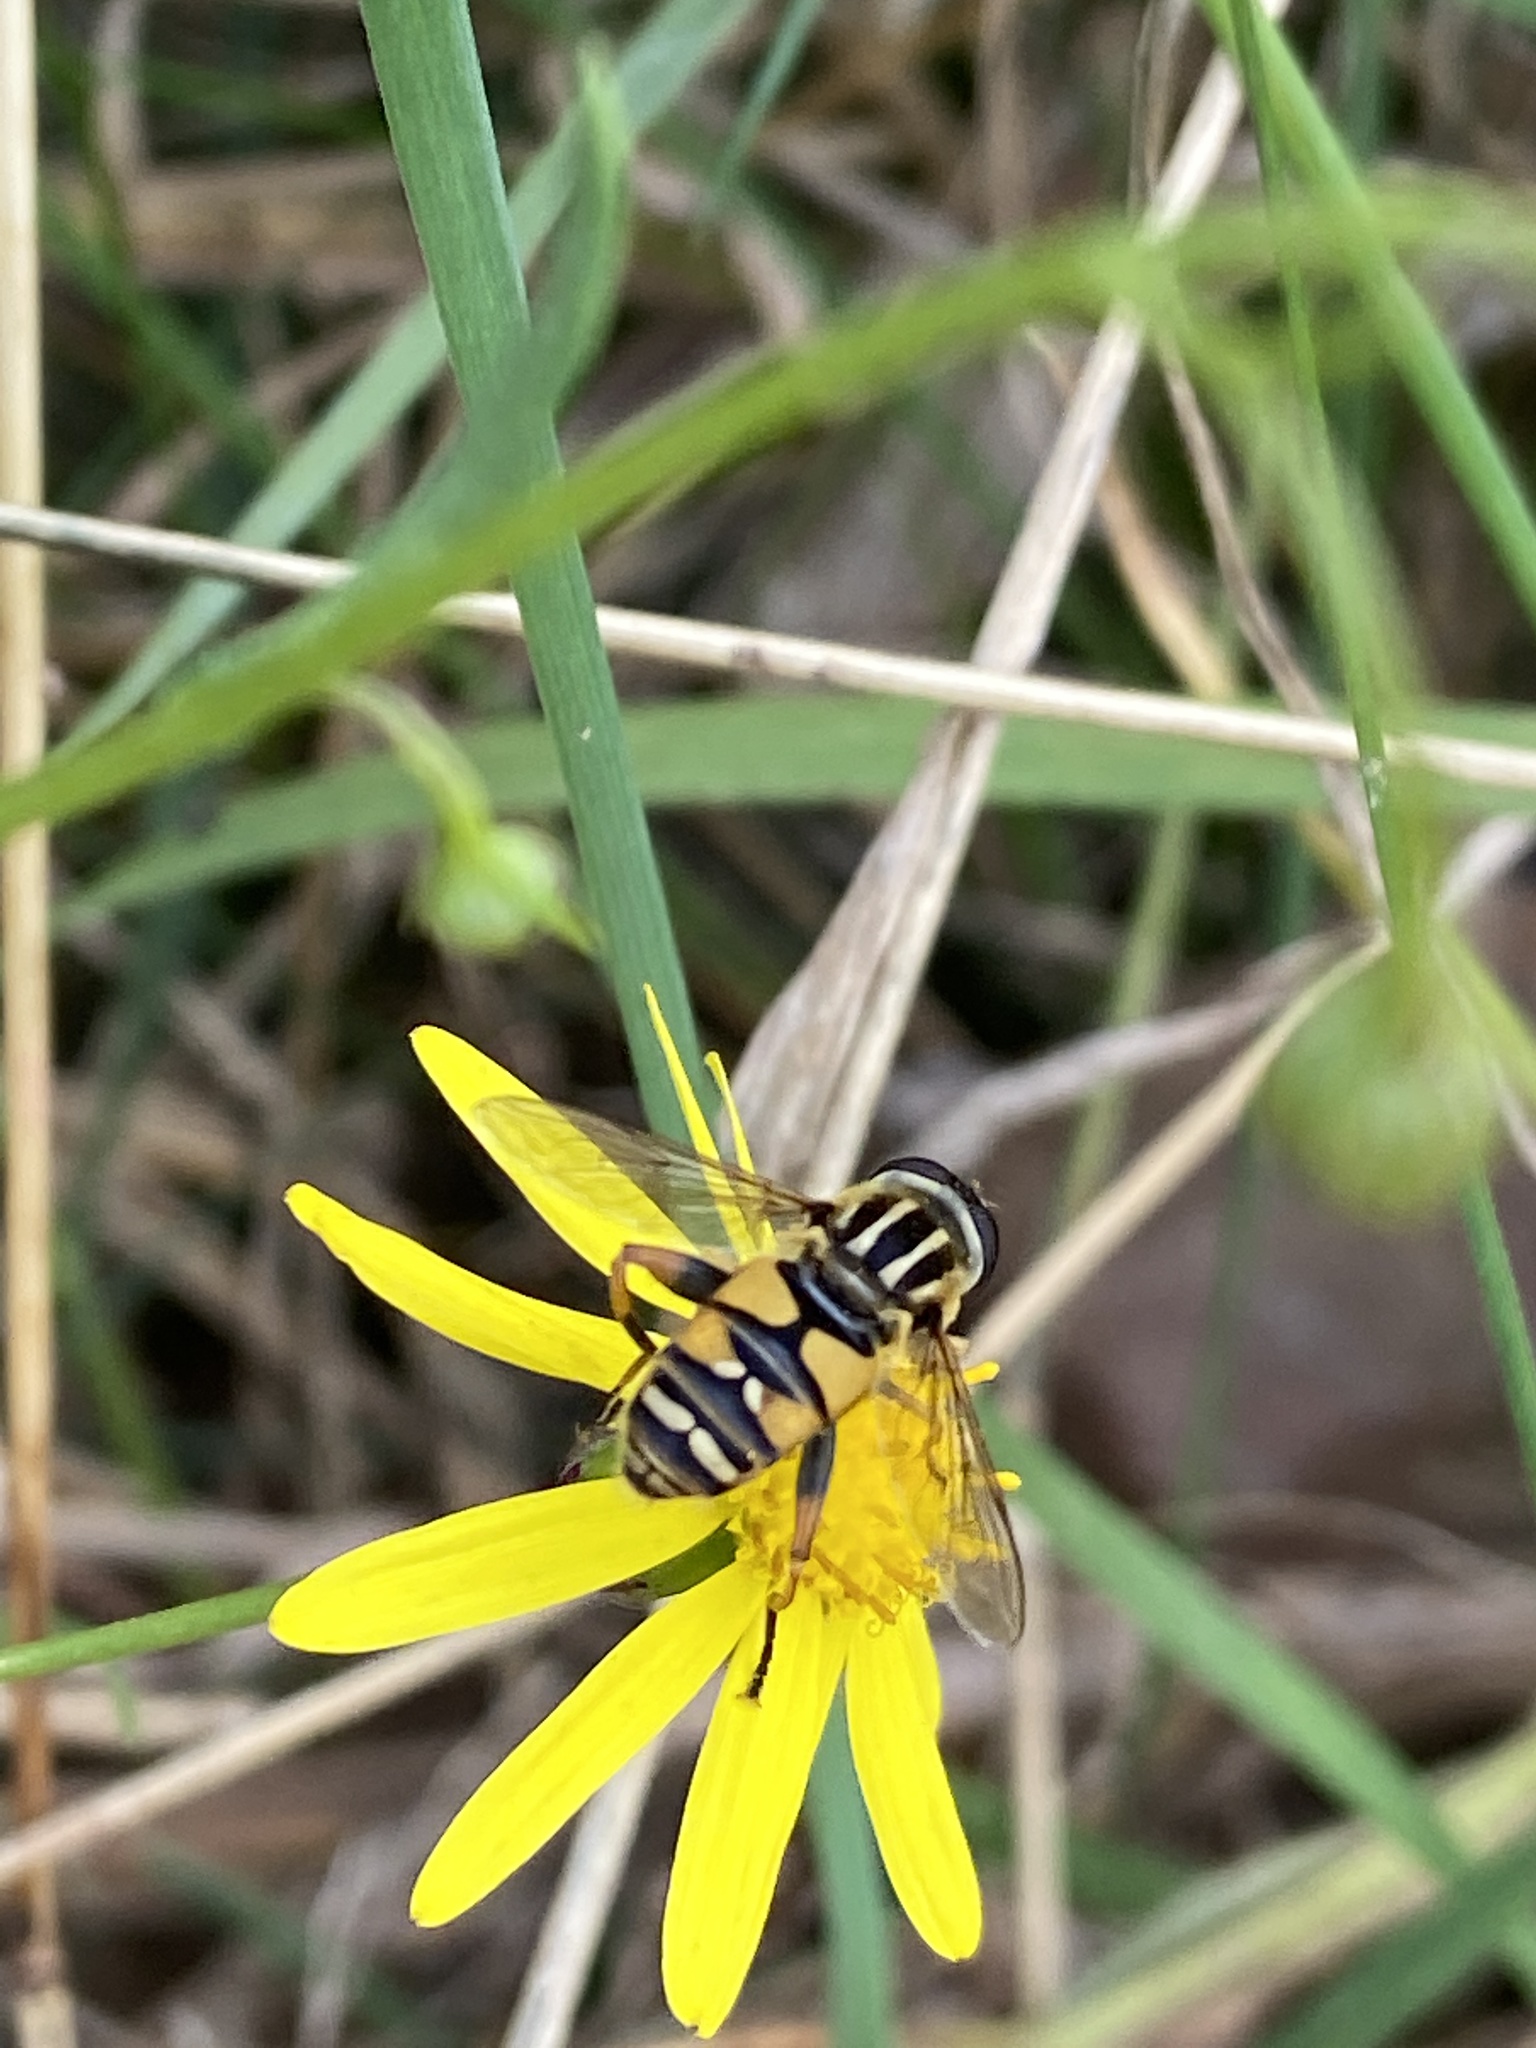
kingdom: Animalia
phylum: Arthropoda
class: Insecta
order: Diptera
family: Syrphidae
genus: Helophilus
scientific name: Helophilus pendulus
